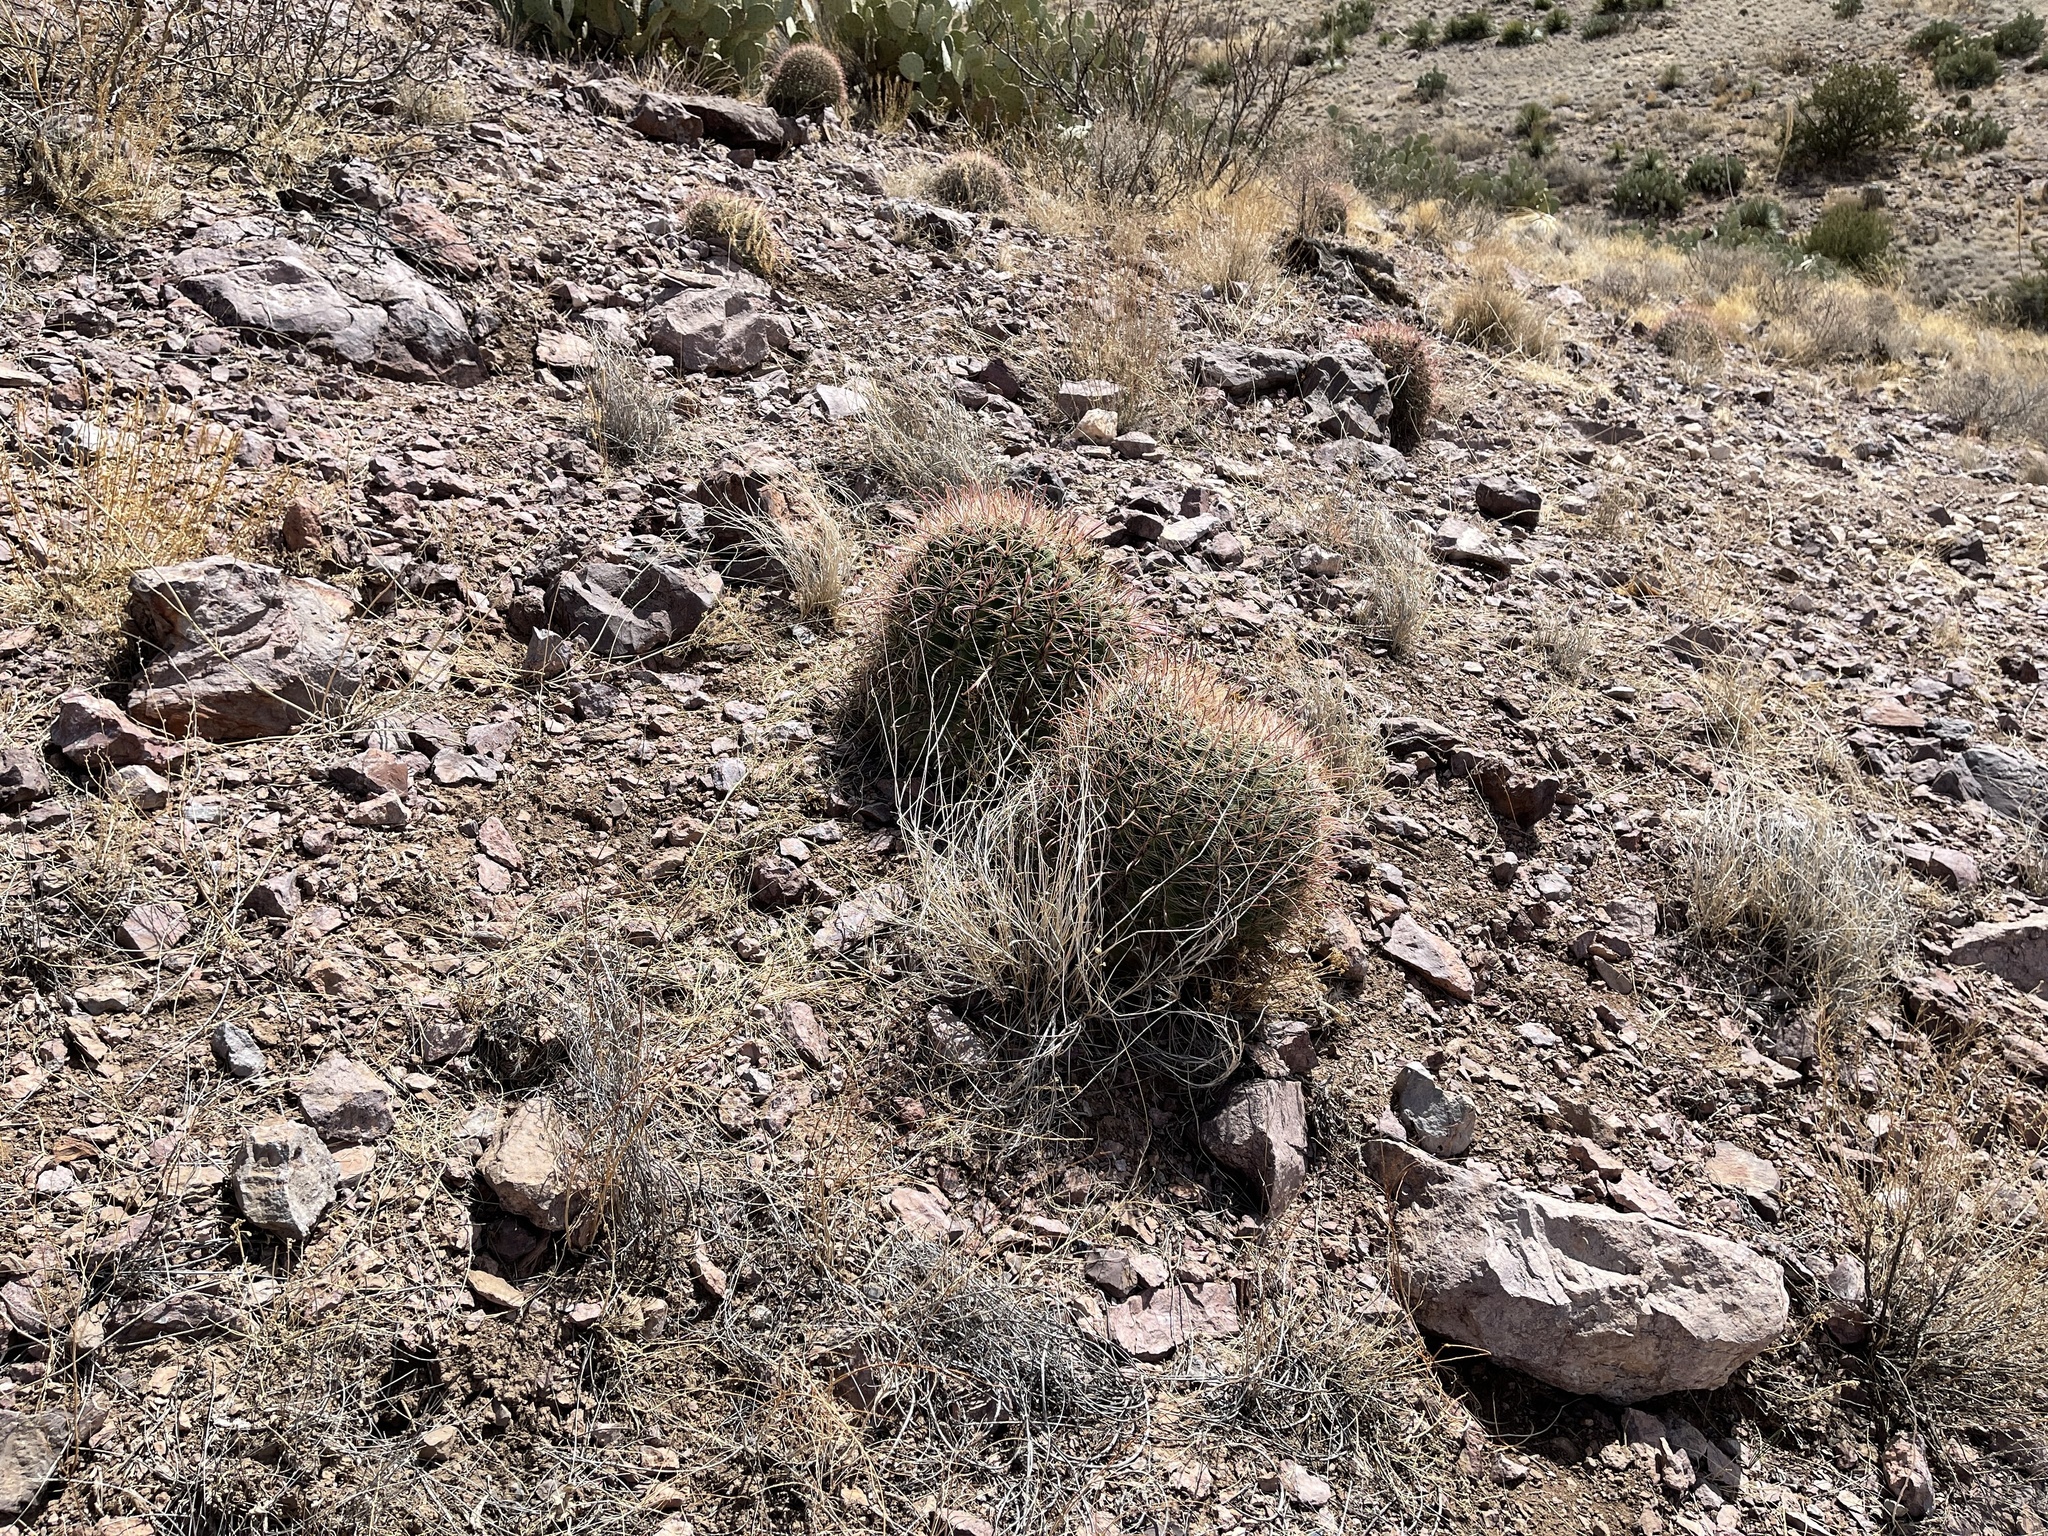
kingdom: Plantae
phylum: Tracheophyta
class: Magnoliopsida
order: Caryophyllales
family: Cactaceae
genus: Ferocactus
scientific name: Ferocactus wislizeni
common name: Candy barrel cactus
